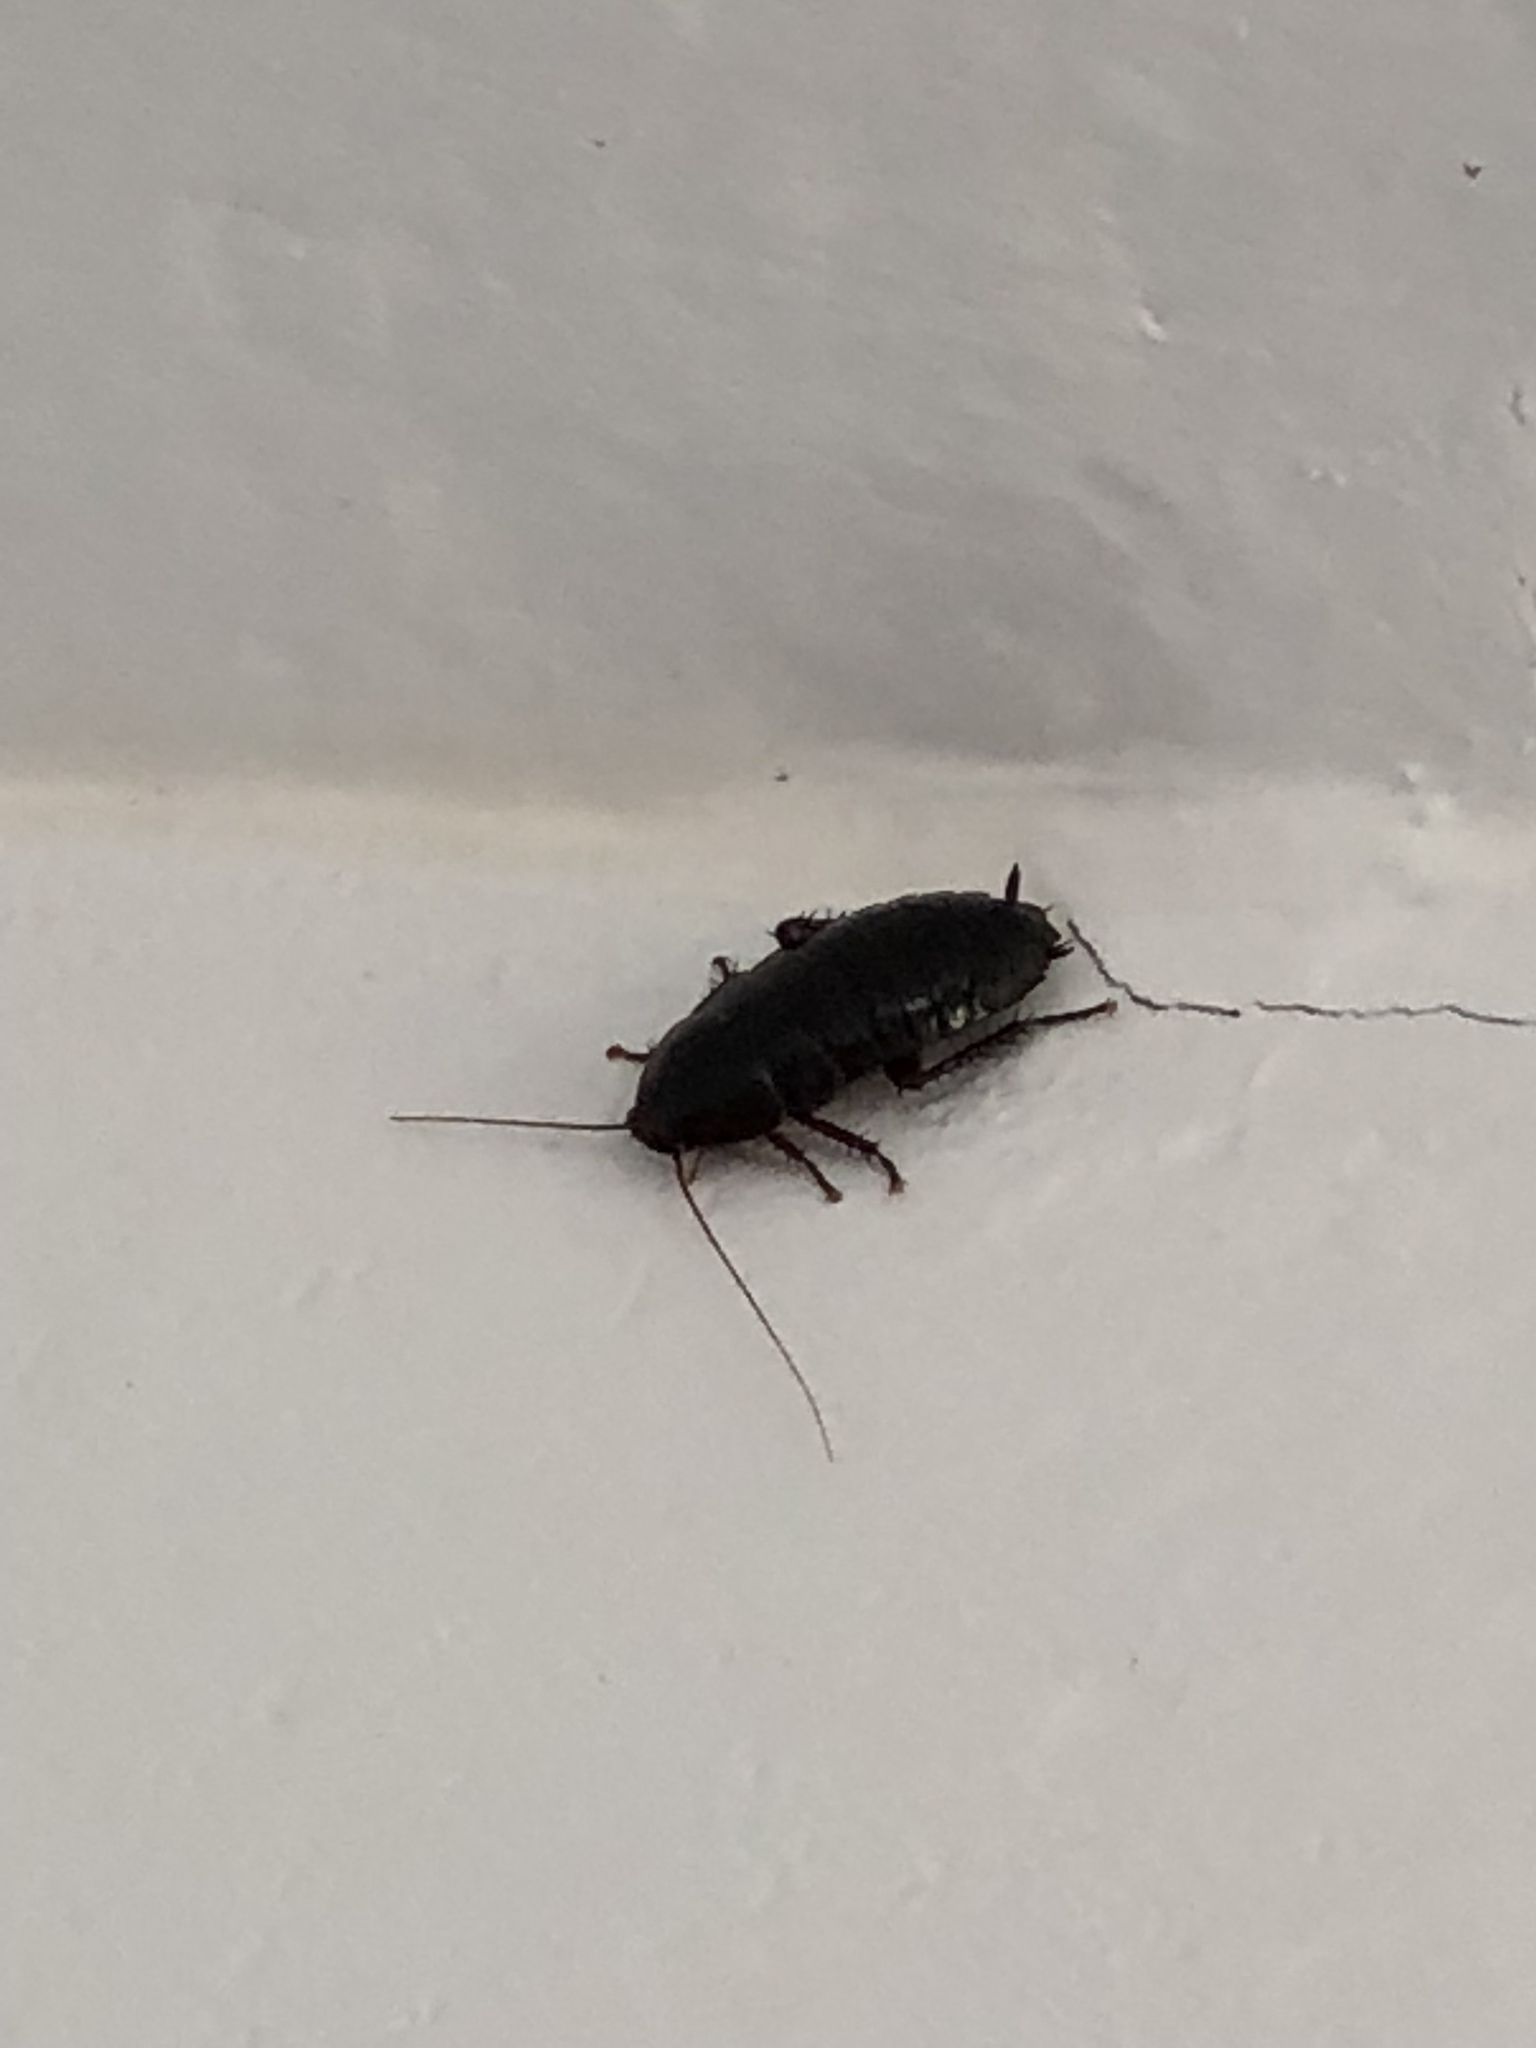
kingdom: Animalia
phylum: Arthropoda
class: Insecta
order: Blattodea
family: Blattidae
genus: Eurycotis
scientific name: Eurycotis floridana
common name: Florida cockroach
